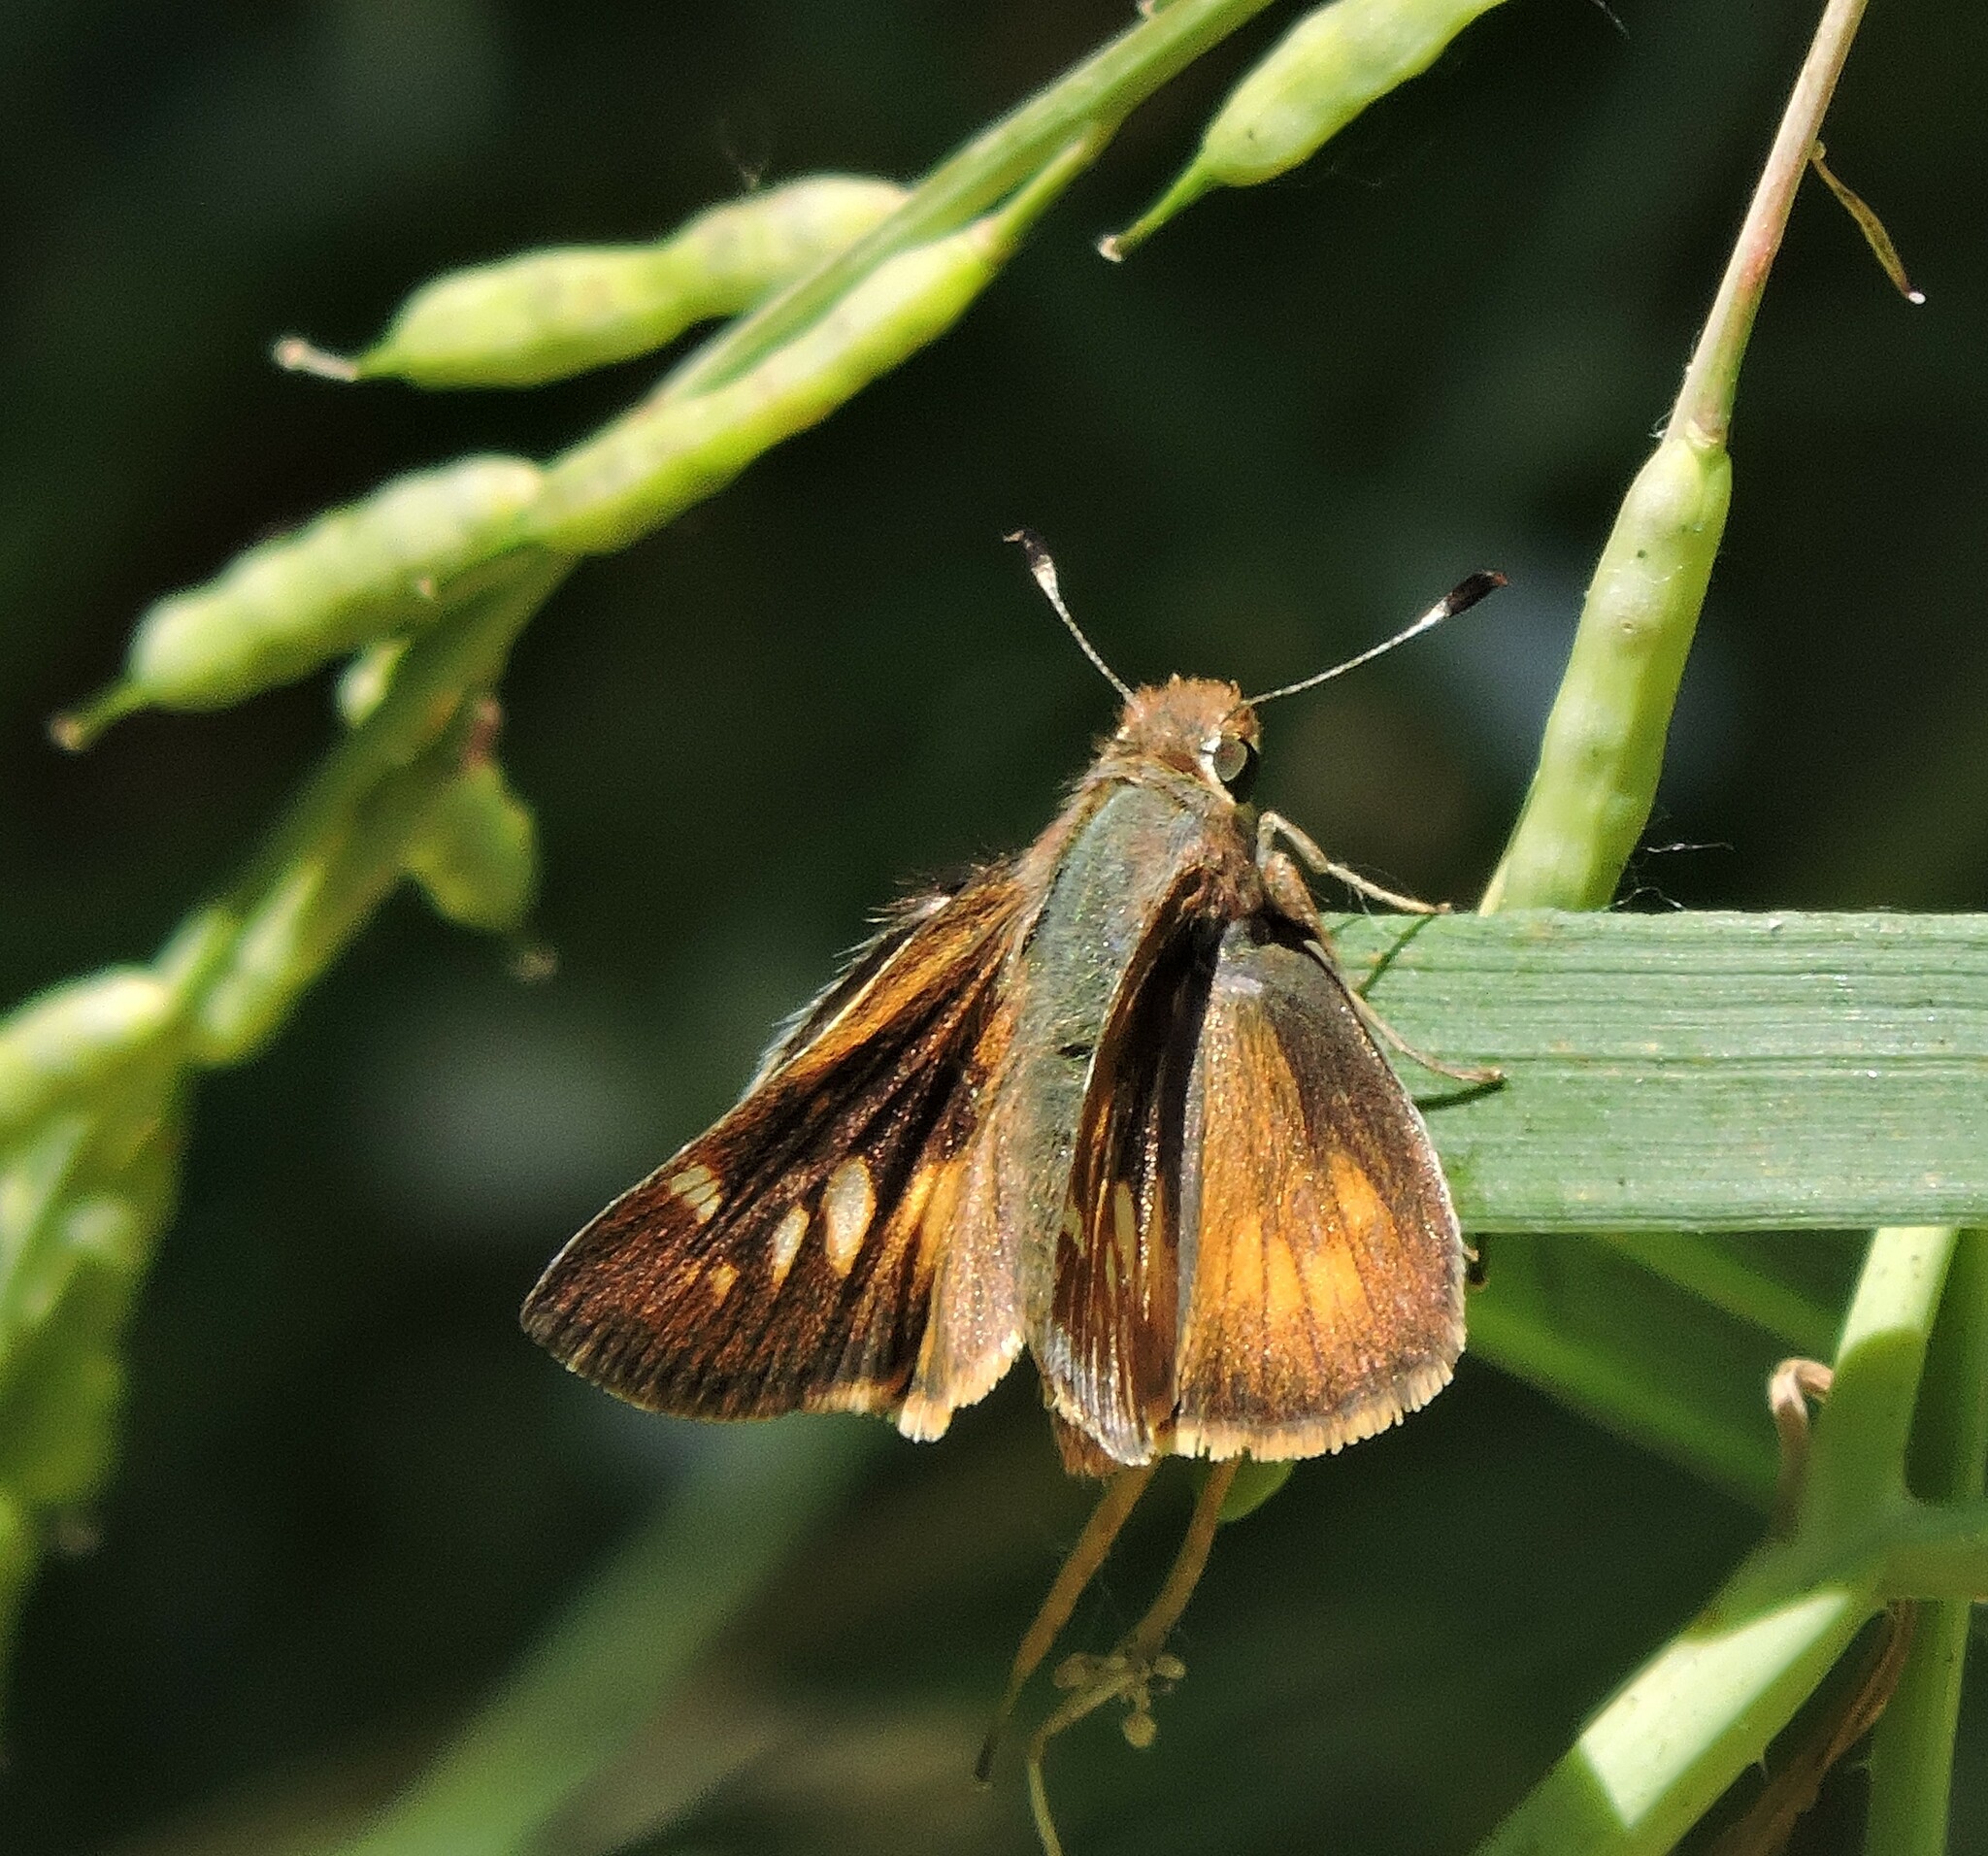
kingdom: Animalia
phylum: Arthropoda
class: Insecta
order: Lepidoptera
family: Hesperiidae
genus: Lon
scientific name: Lon melane
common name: Umber skipper
